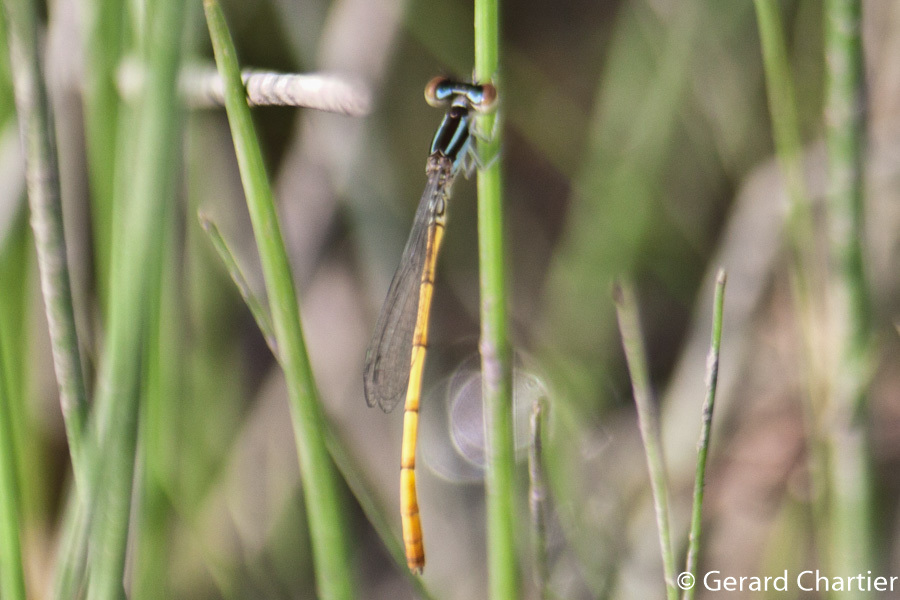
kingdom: Animalia
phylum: Arthropoda
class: Insecta
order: Odonata
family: Coenagrionidae
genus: Agriocnemis
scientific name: Agriocnemis minima
